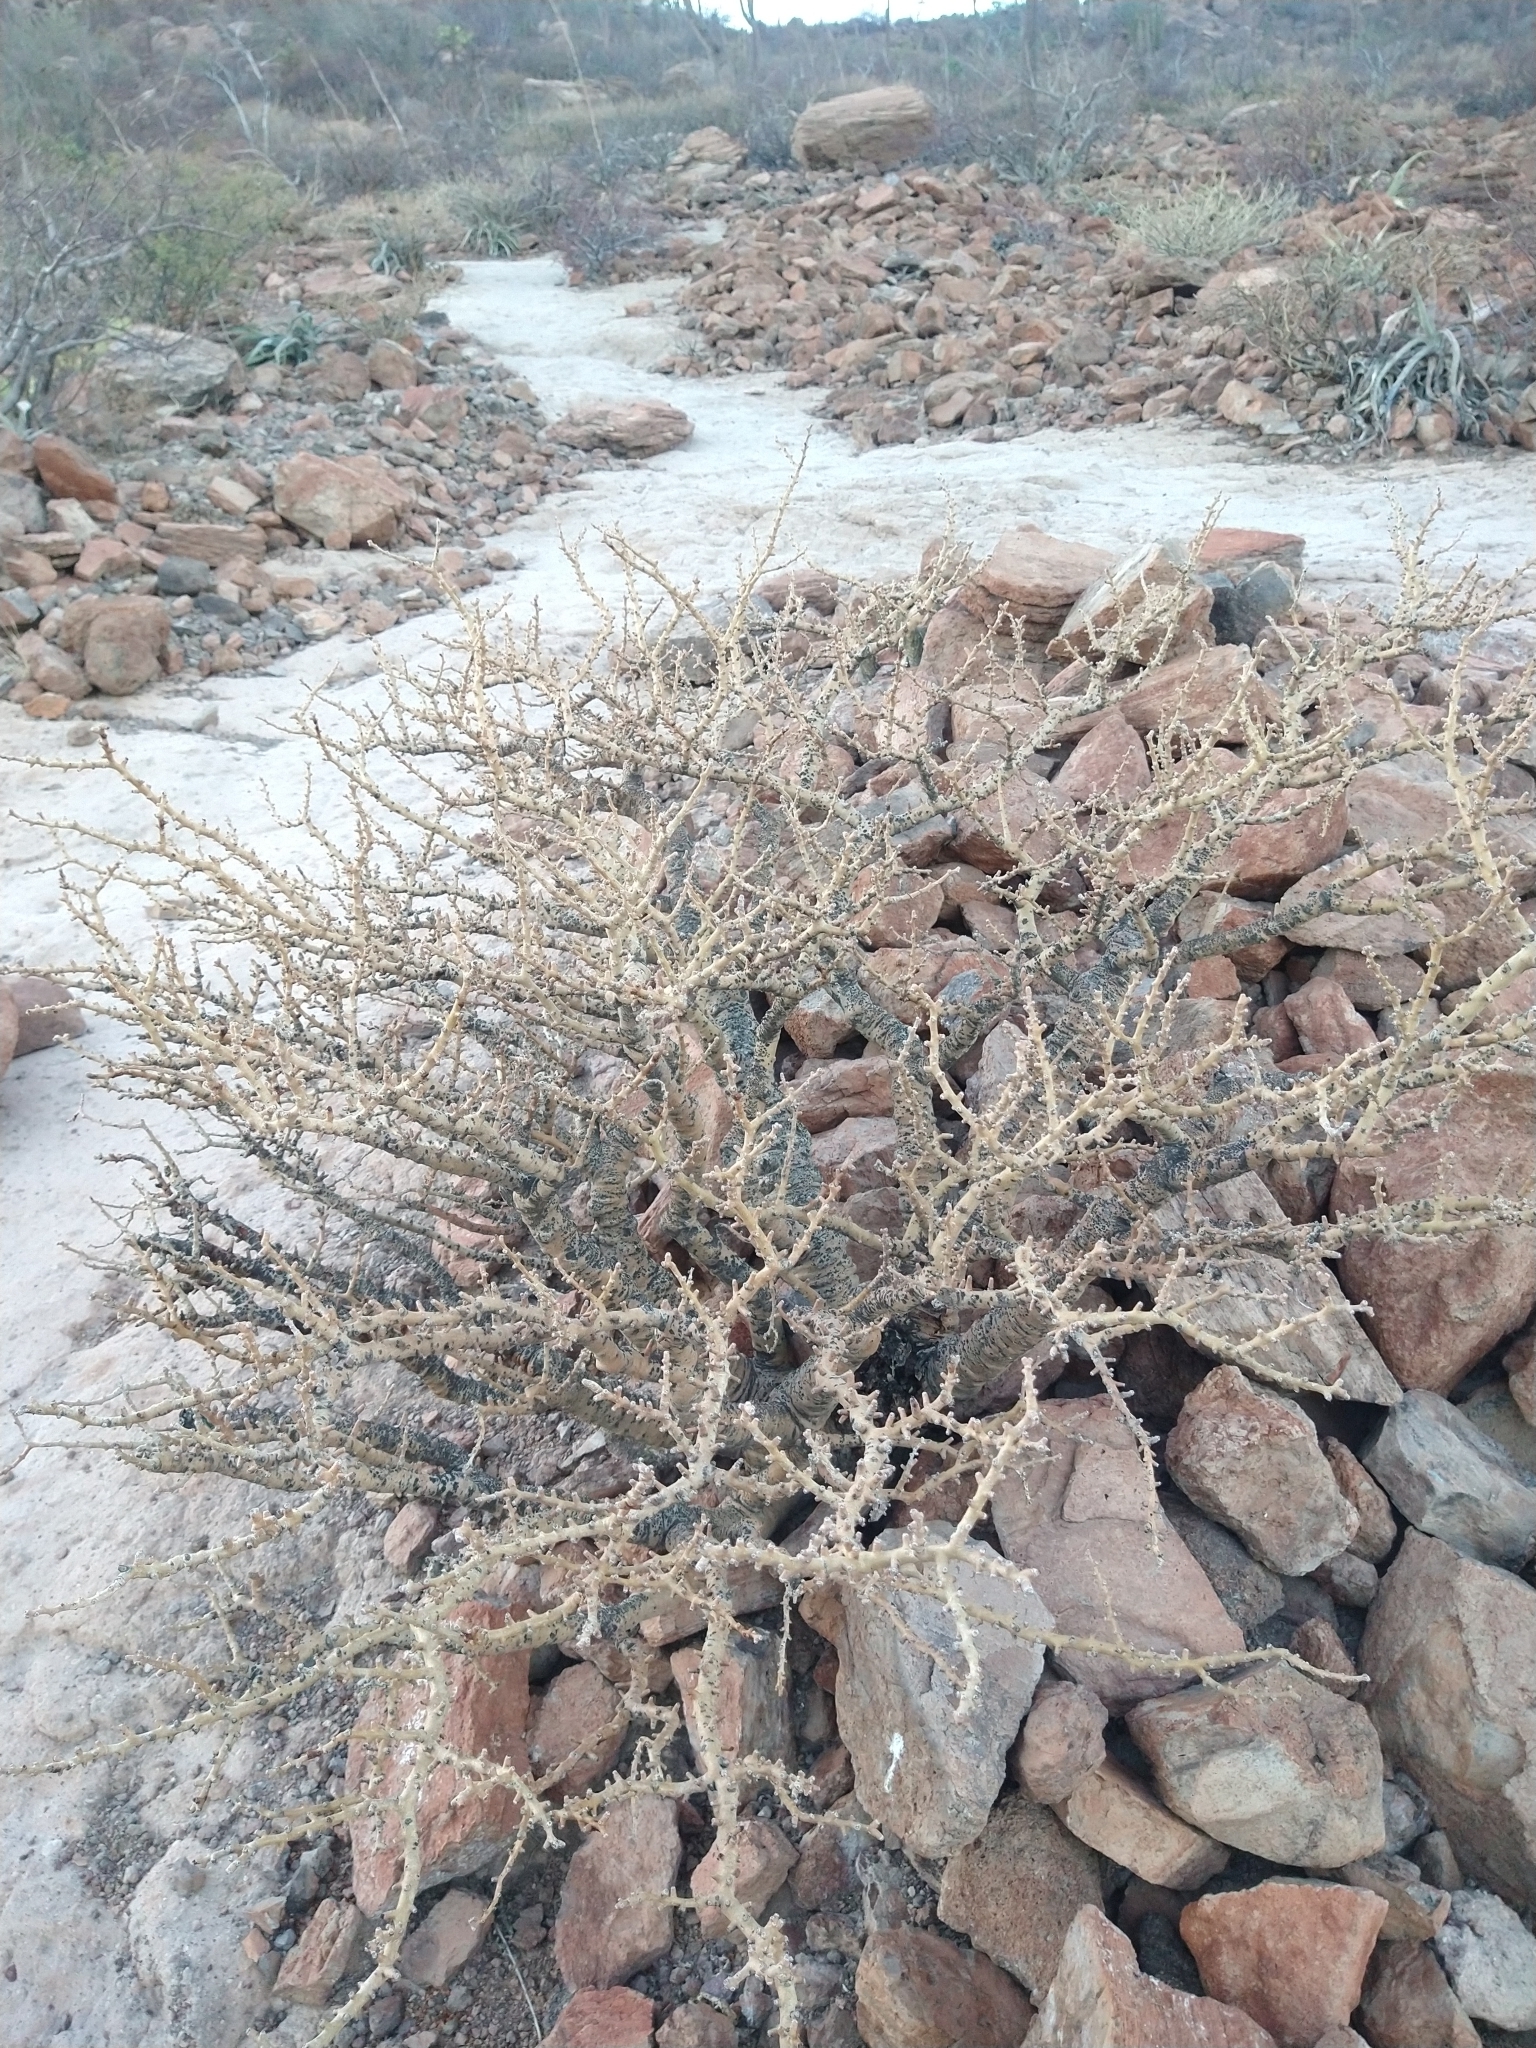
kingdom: Plantae
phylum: Tracheophyta
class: Magnoliopsida
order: Malpighiales
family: Euphorbiaceae
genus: Jatropha
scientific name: Jatropha cuneata
